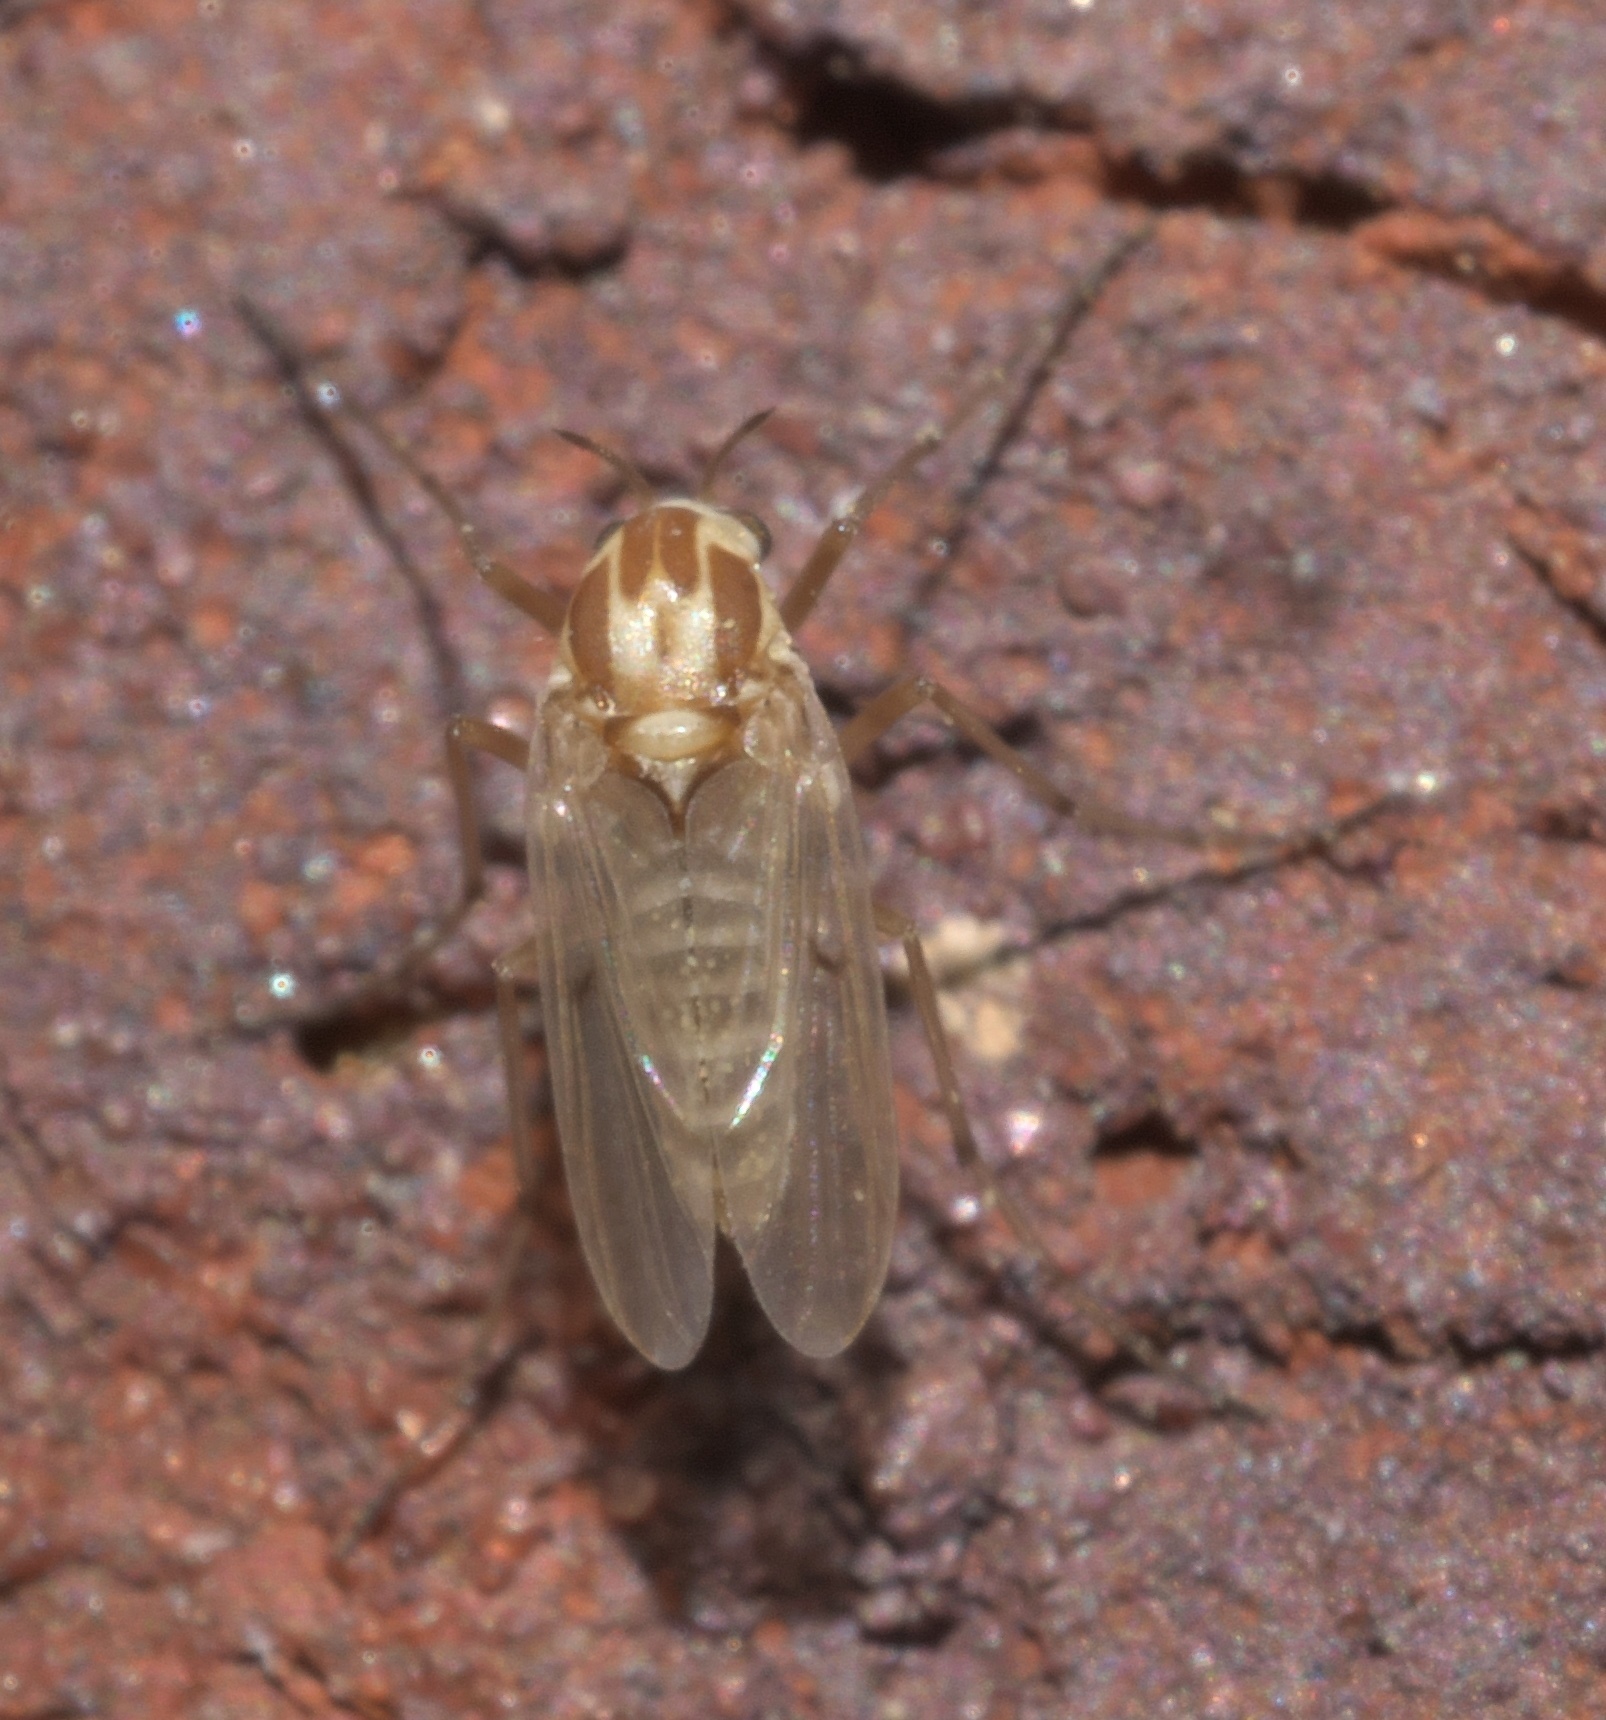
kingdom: Animalia
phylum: Arthropoda
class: Insecta
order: Diptera
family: Chironomidae
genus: Procladius
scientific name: Procladius bellus
